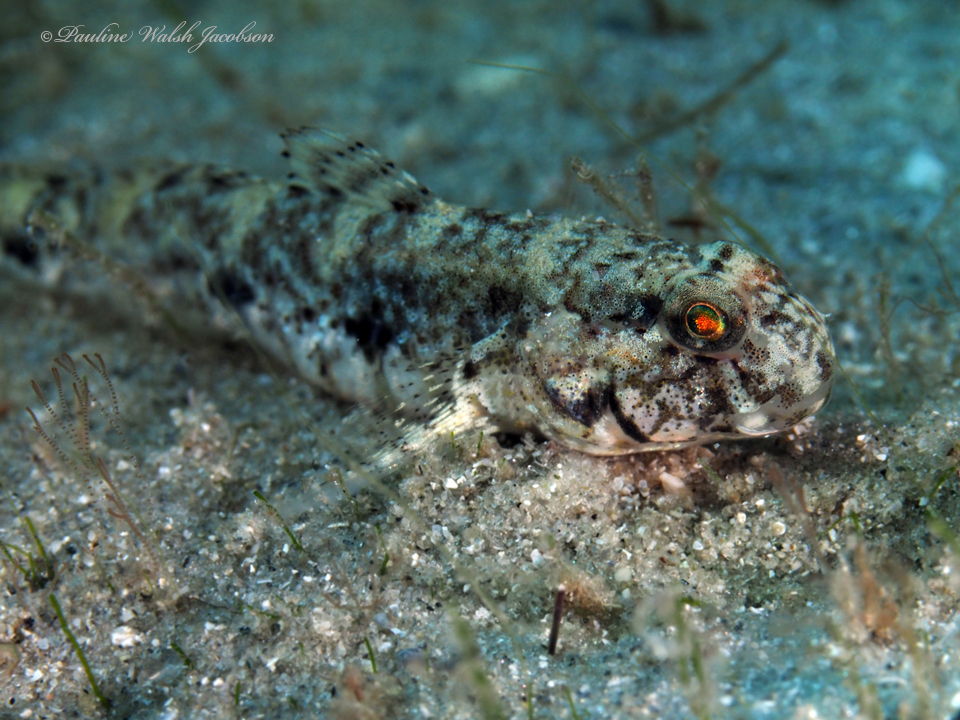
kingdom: Animalia
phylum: Chordata
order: Perciformes
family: Gobiidae
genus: Ctenogobius
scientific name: Ctenogobius stigmaturus
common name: Spottail goby
